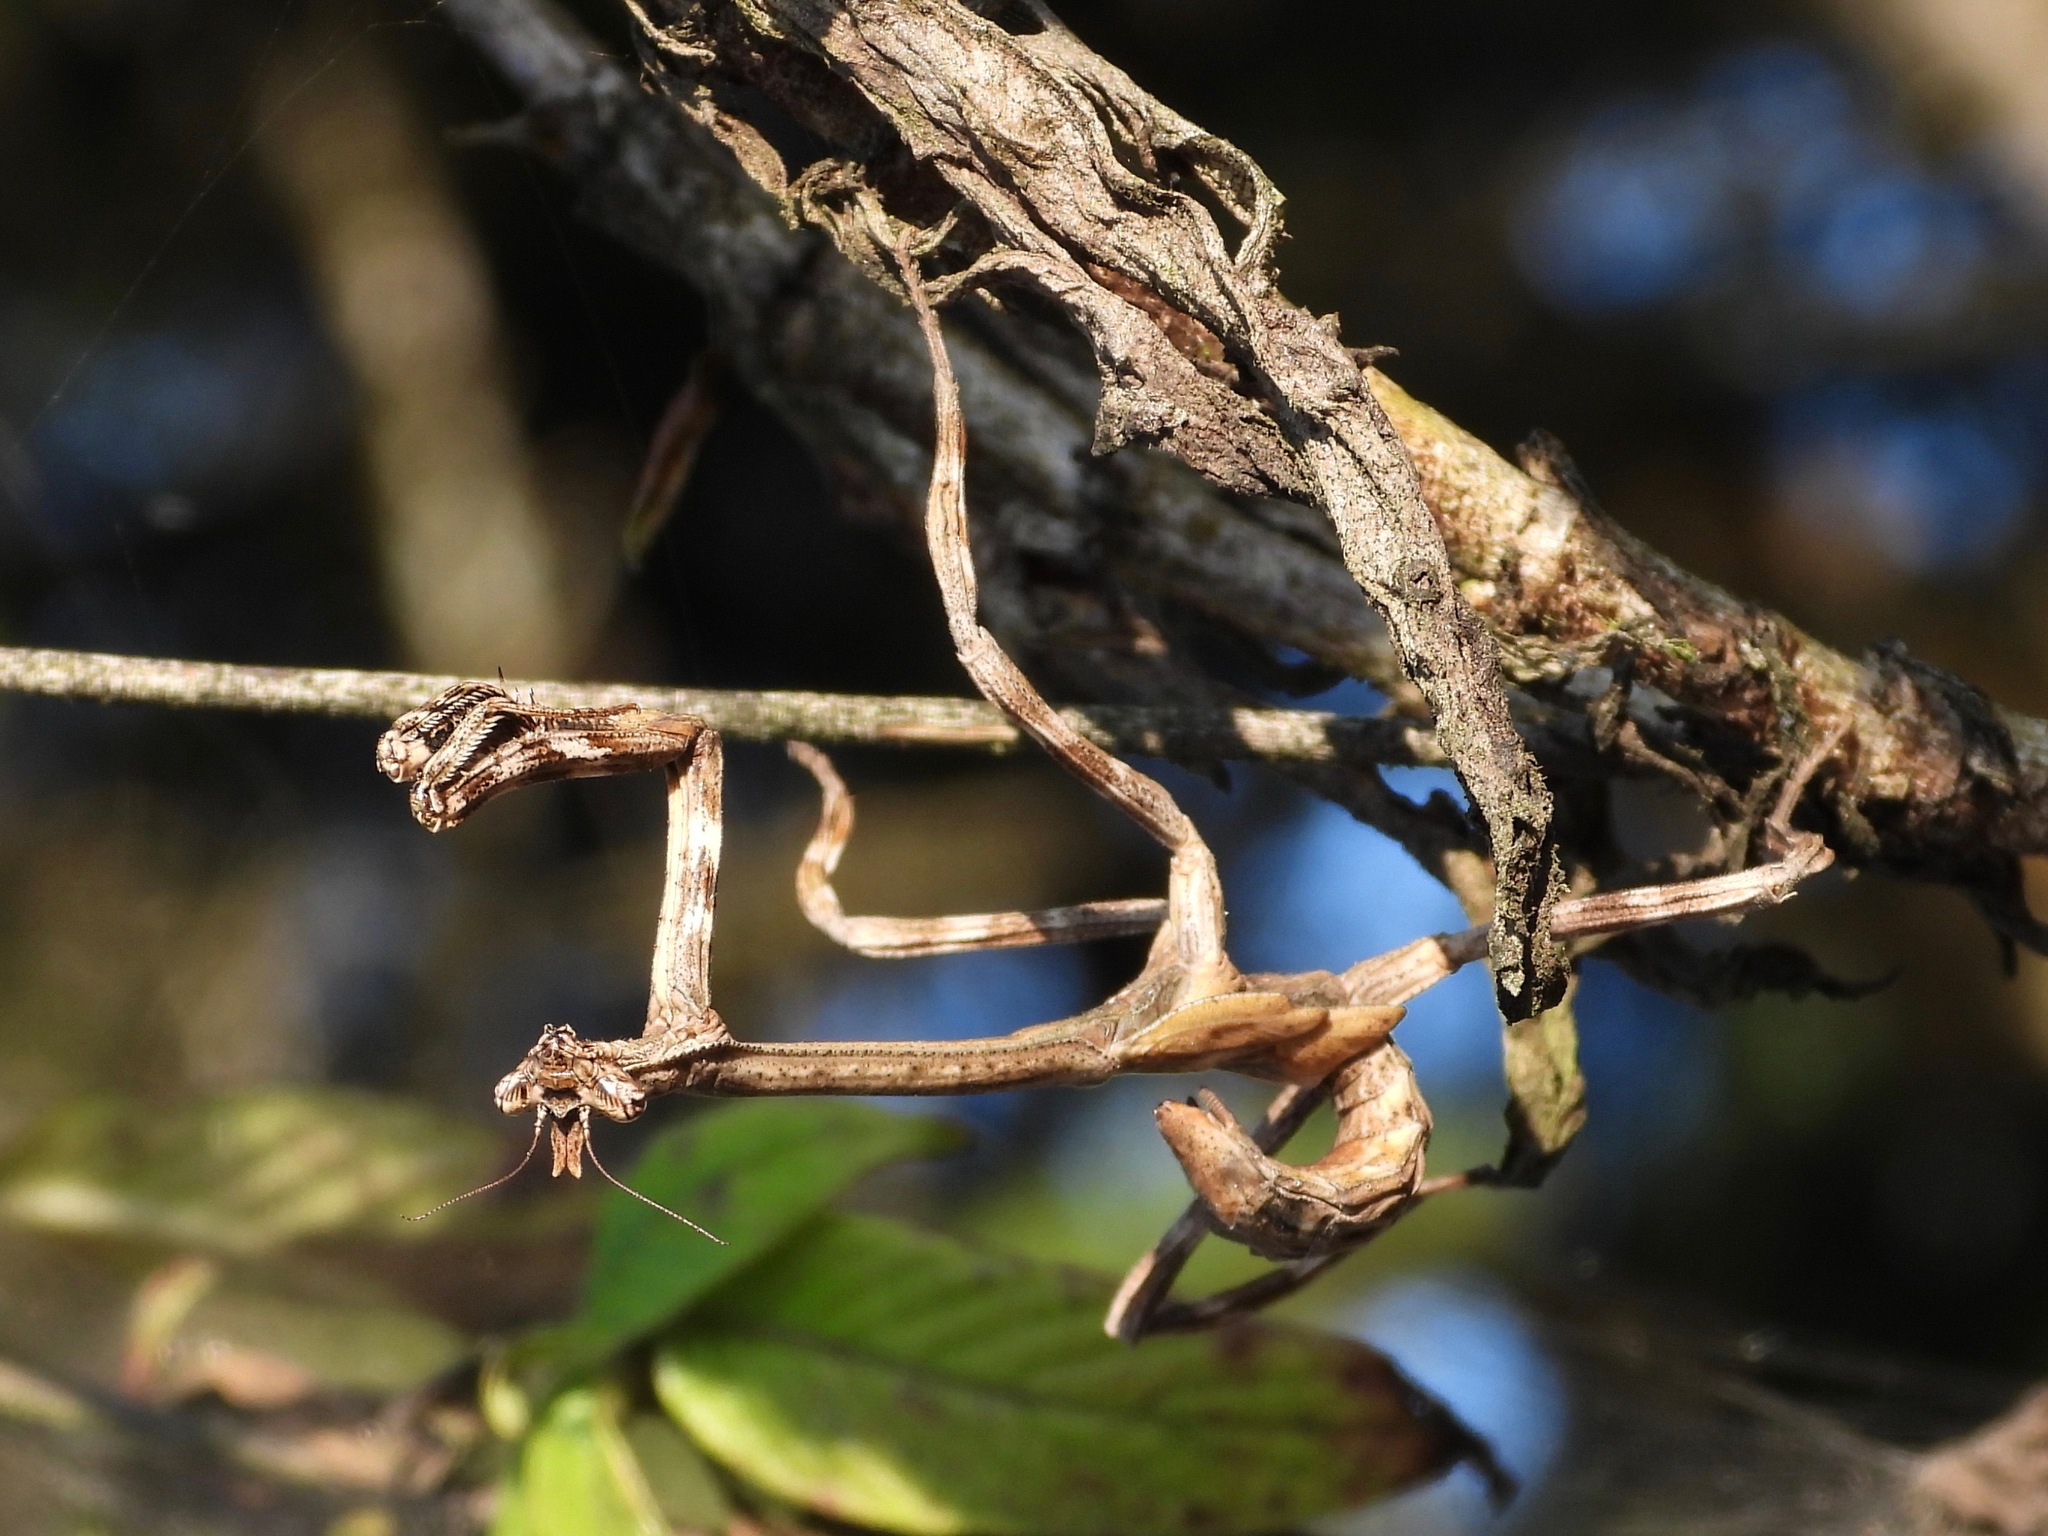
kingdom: Animalia
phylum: Arthropoda
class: Insecta
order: Mantodea
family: Mantidae
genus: Pseudovates
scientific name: Pseudovates chlorophaea
